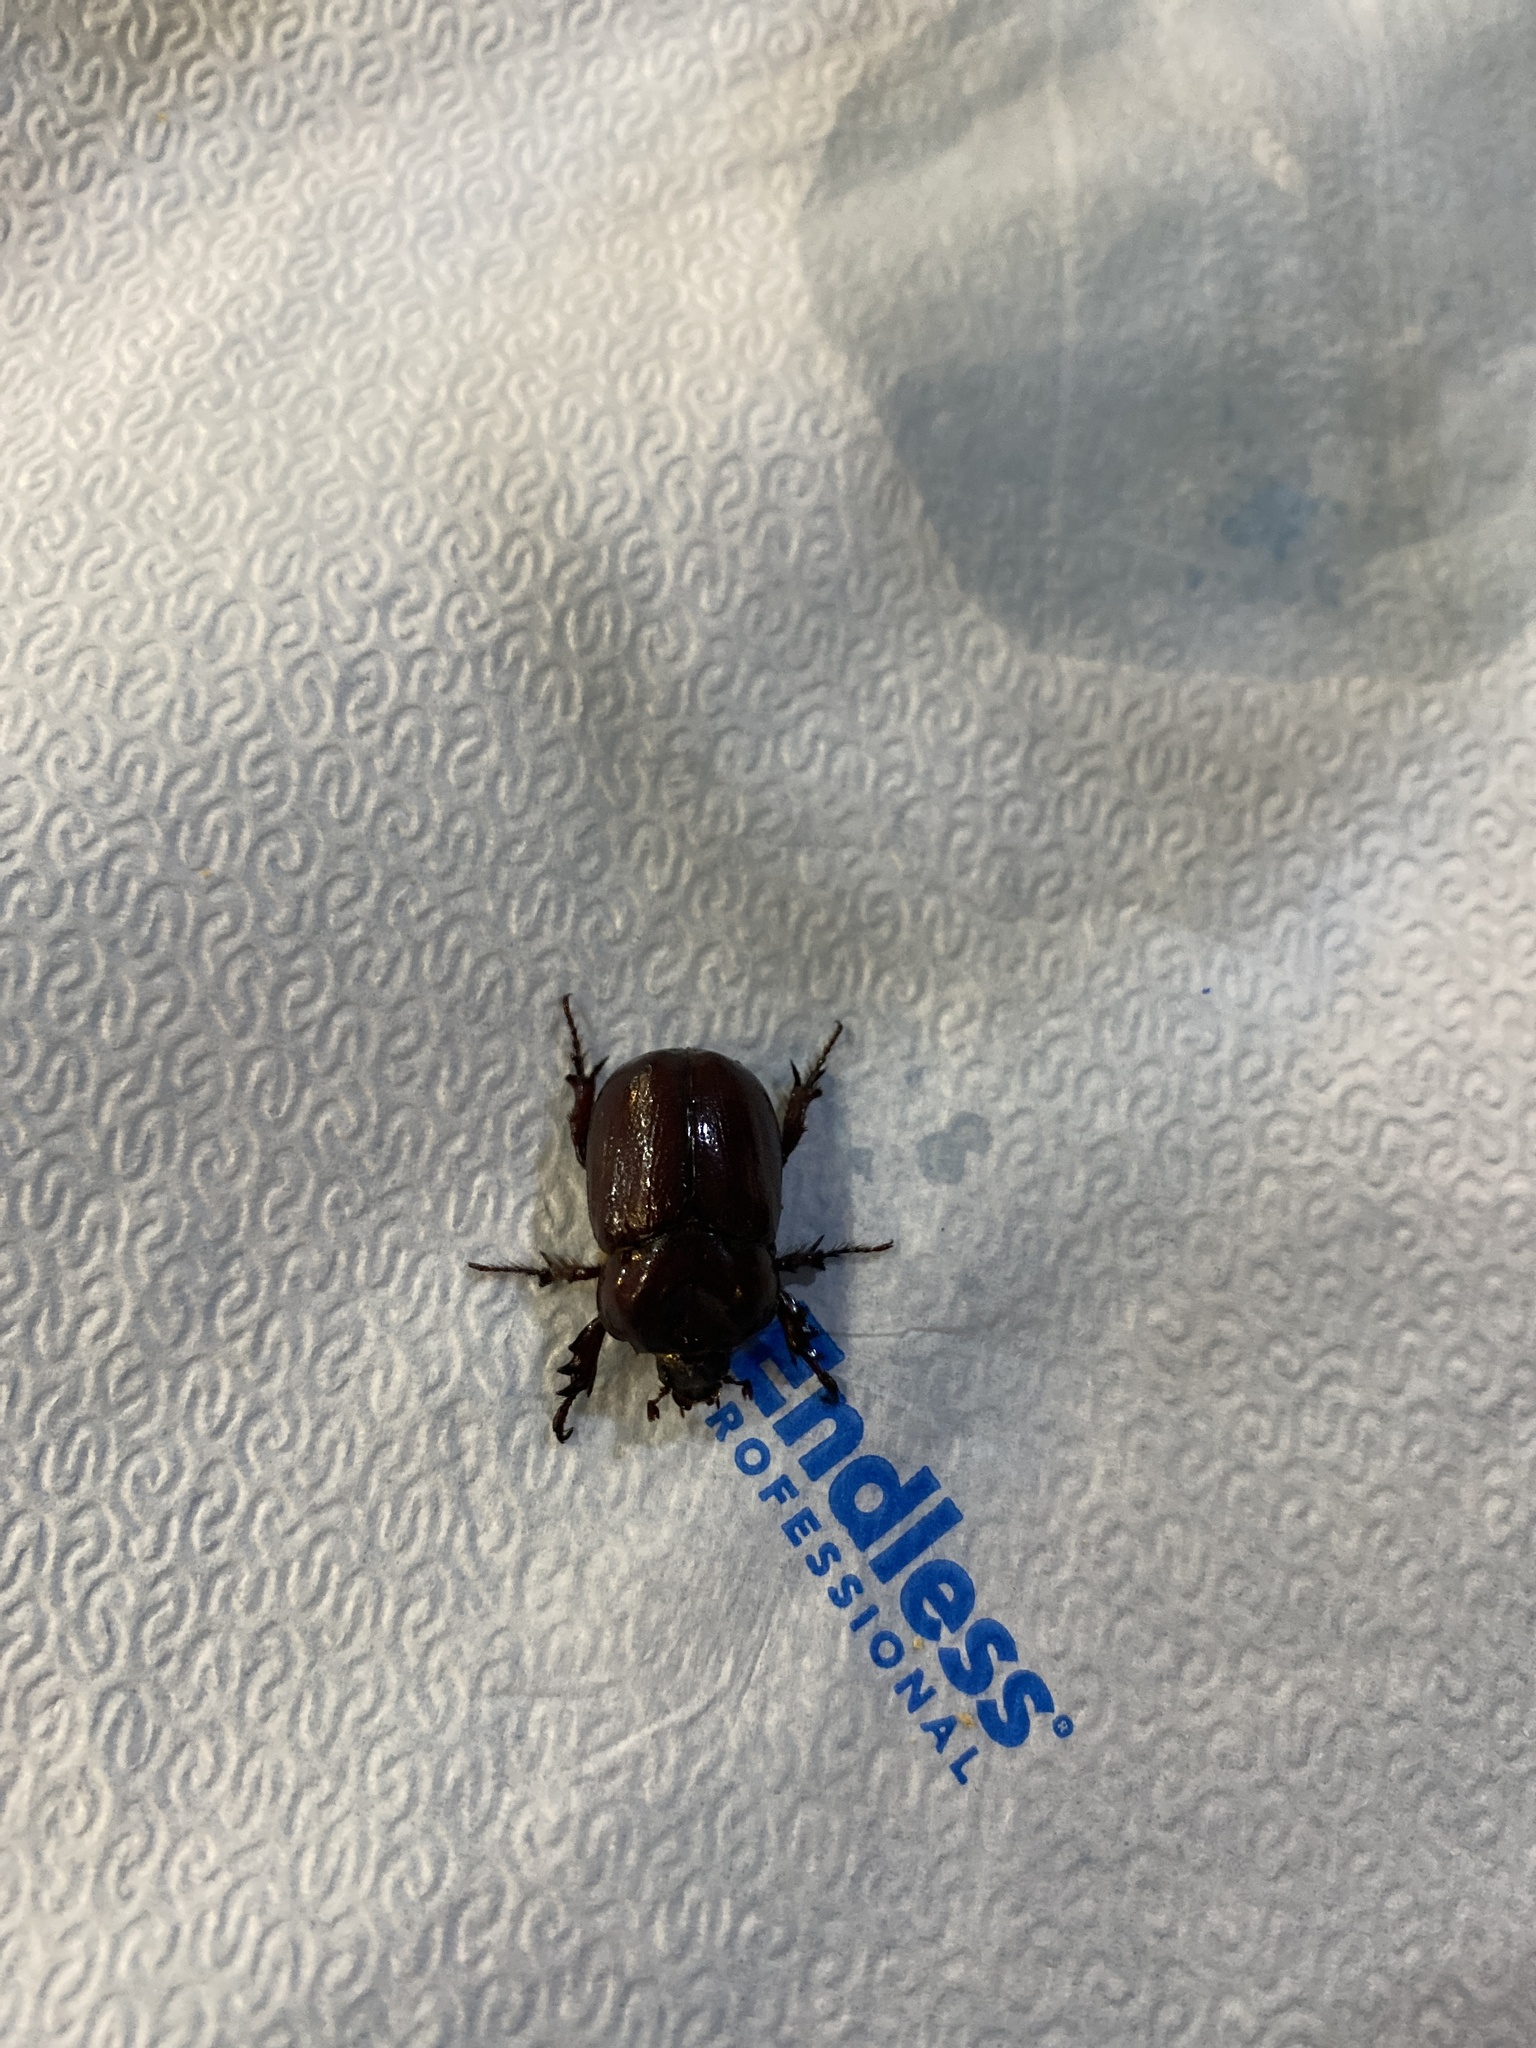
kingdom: Animalia
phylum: Arthropoda
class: Insecta
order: Coleoptera
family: Scarabaeidae
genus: Phyllognathus
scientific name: Phyllognathus excavatus
